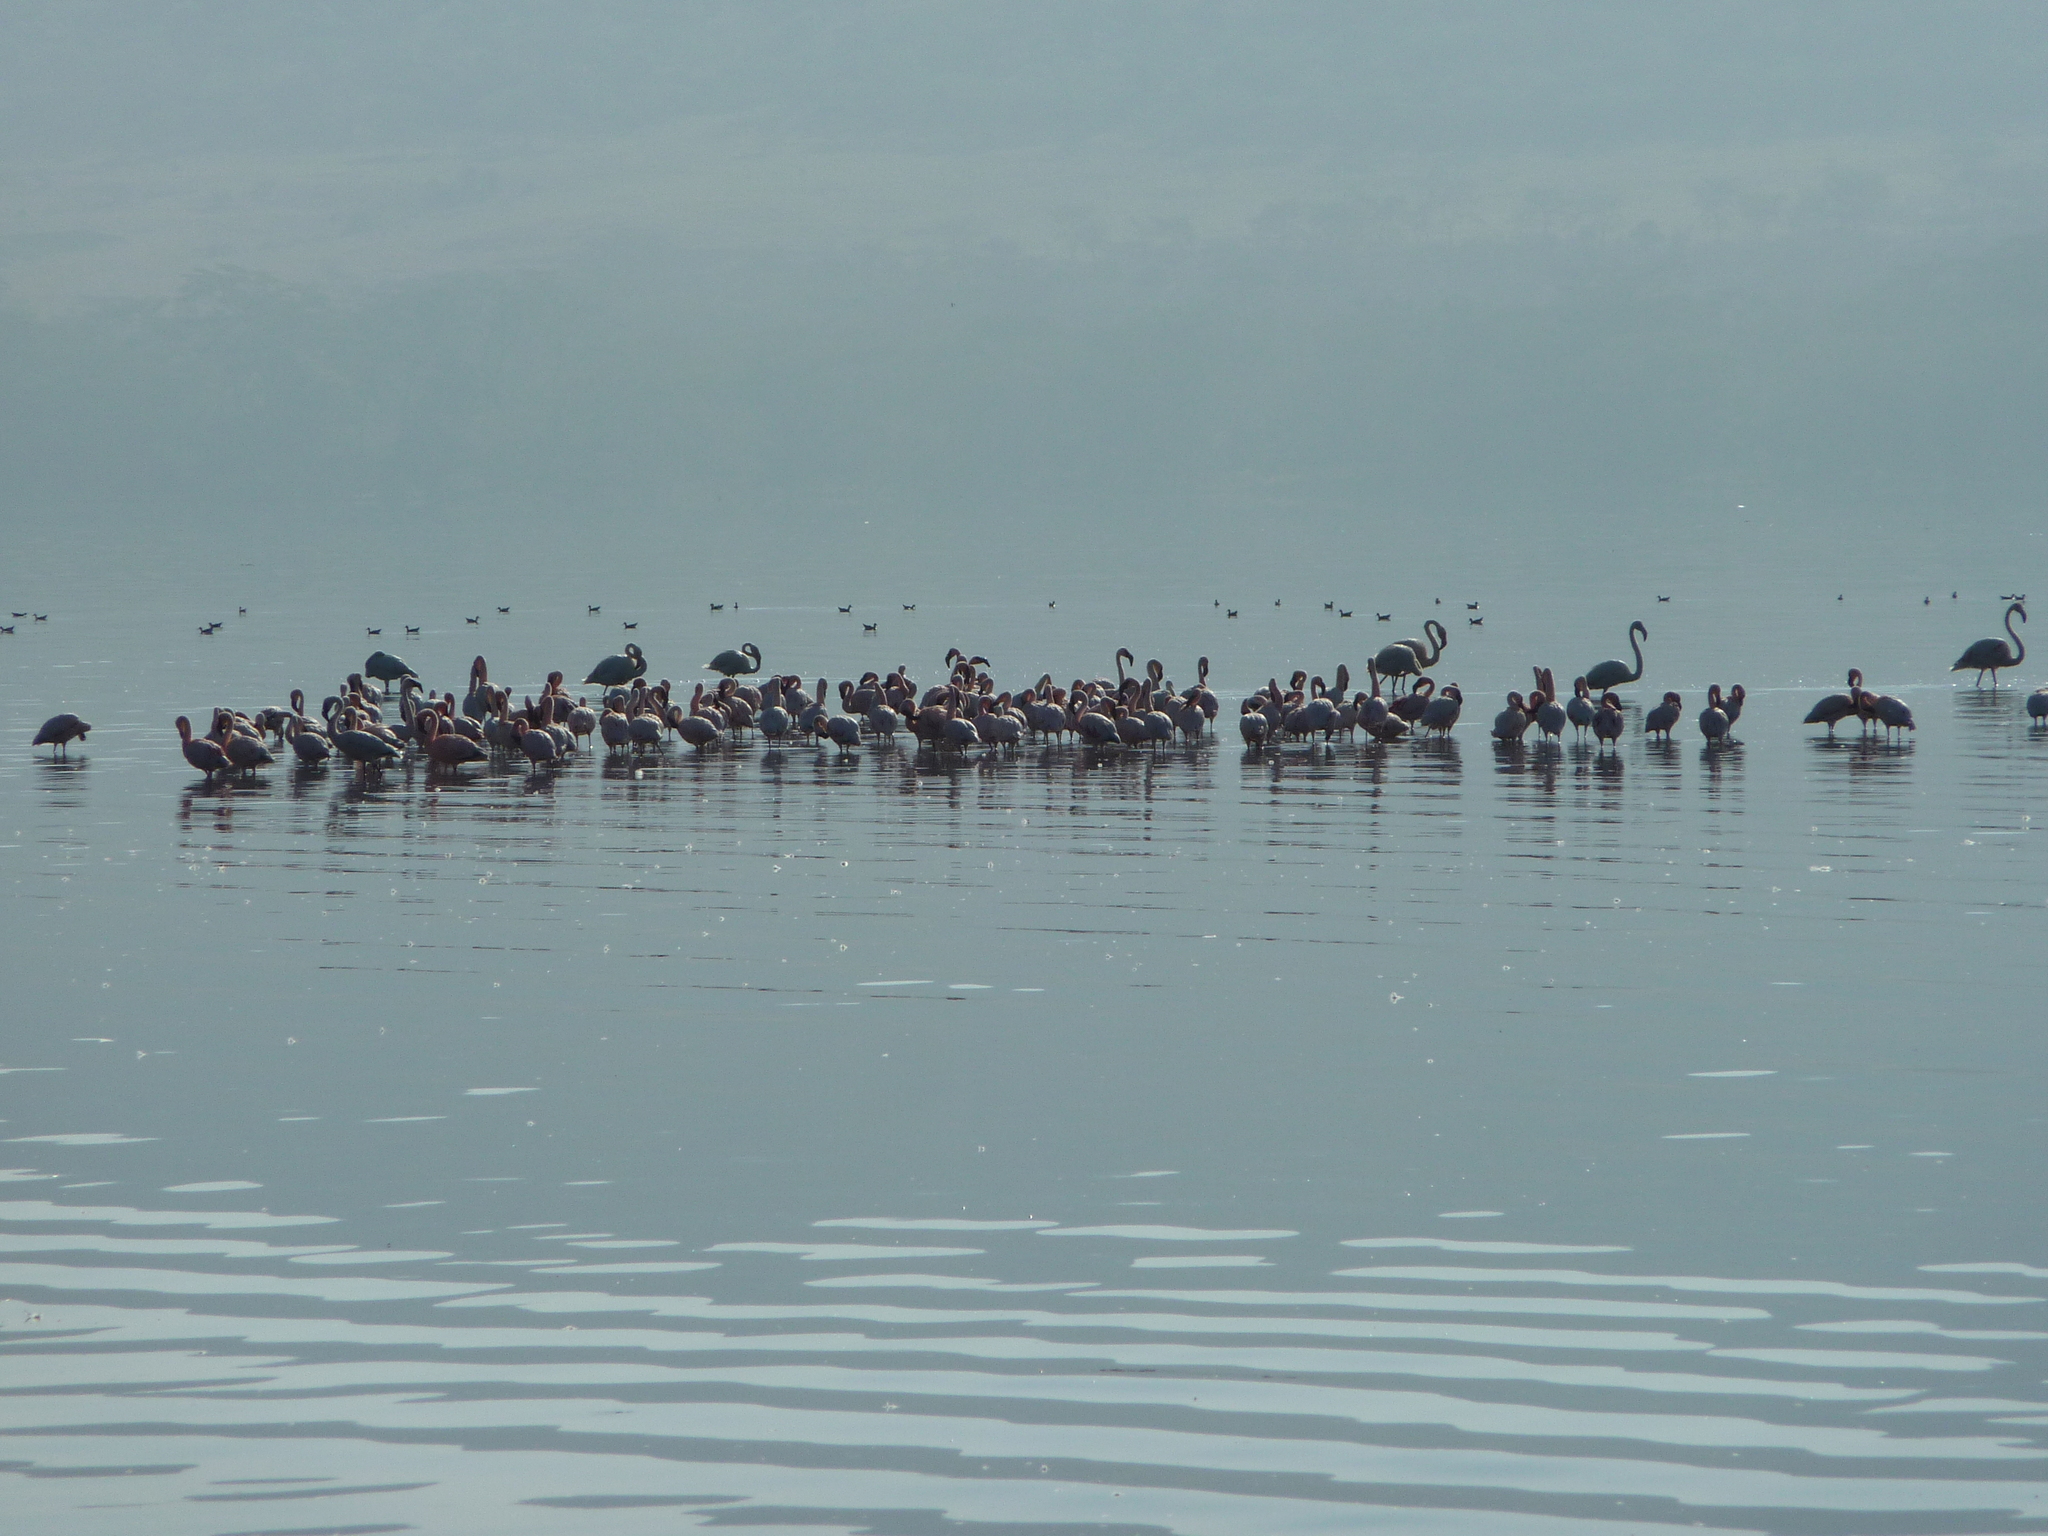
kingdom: Animalia
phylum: Chordata
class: Aves
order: Phoenicopteriformes
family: Phoenicopteridae
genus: Phoeniconaias
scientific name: Phoeniconaias minor
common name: Lesser flamingo
